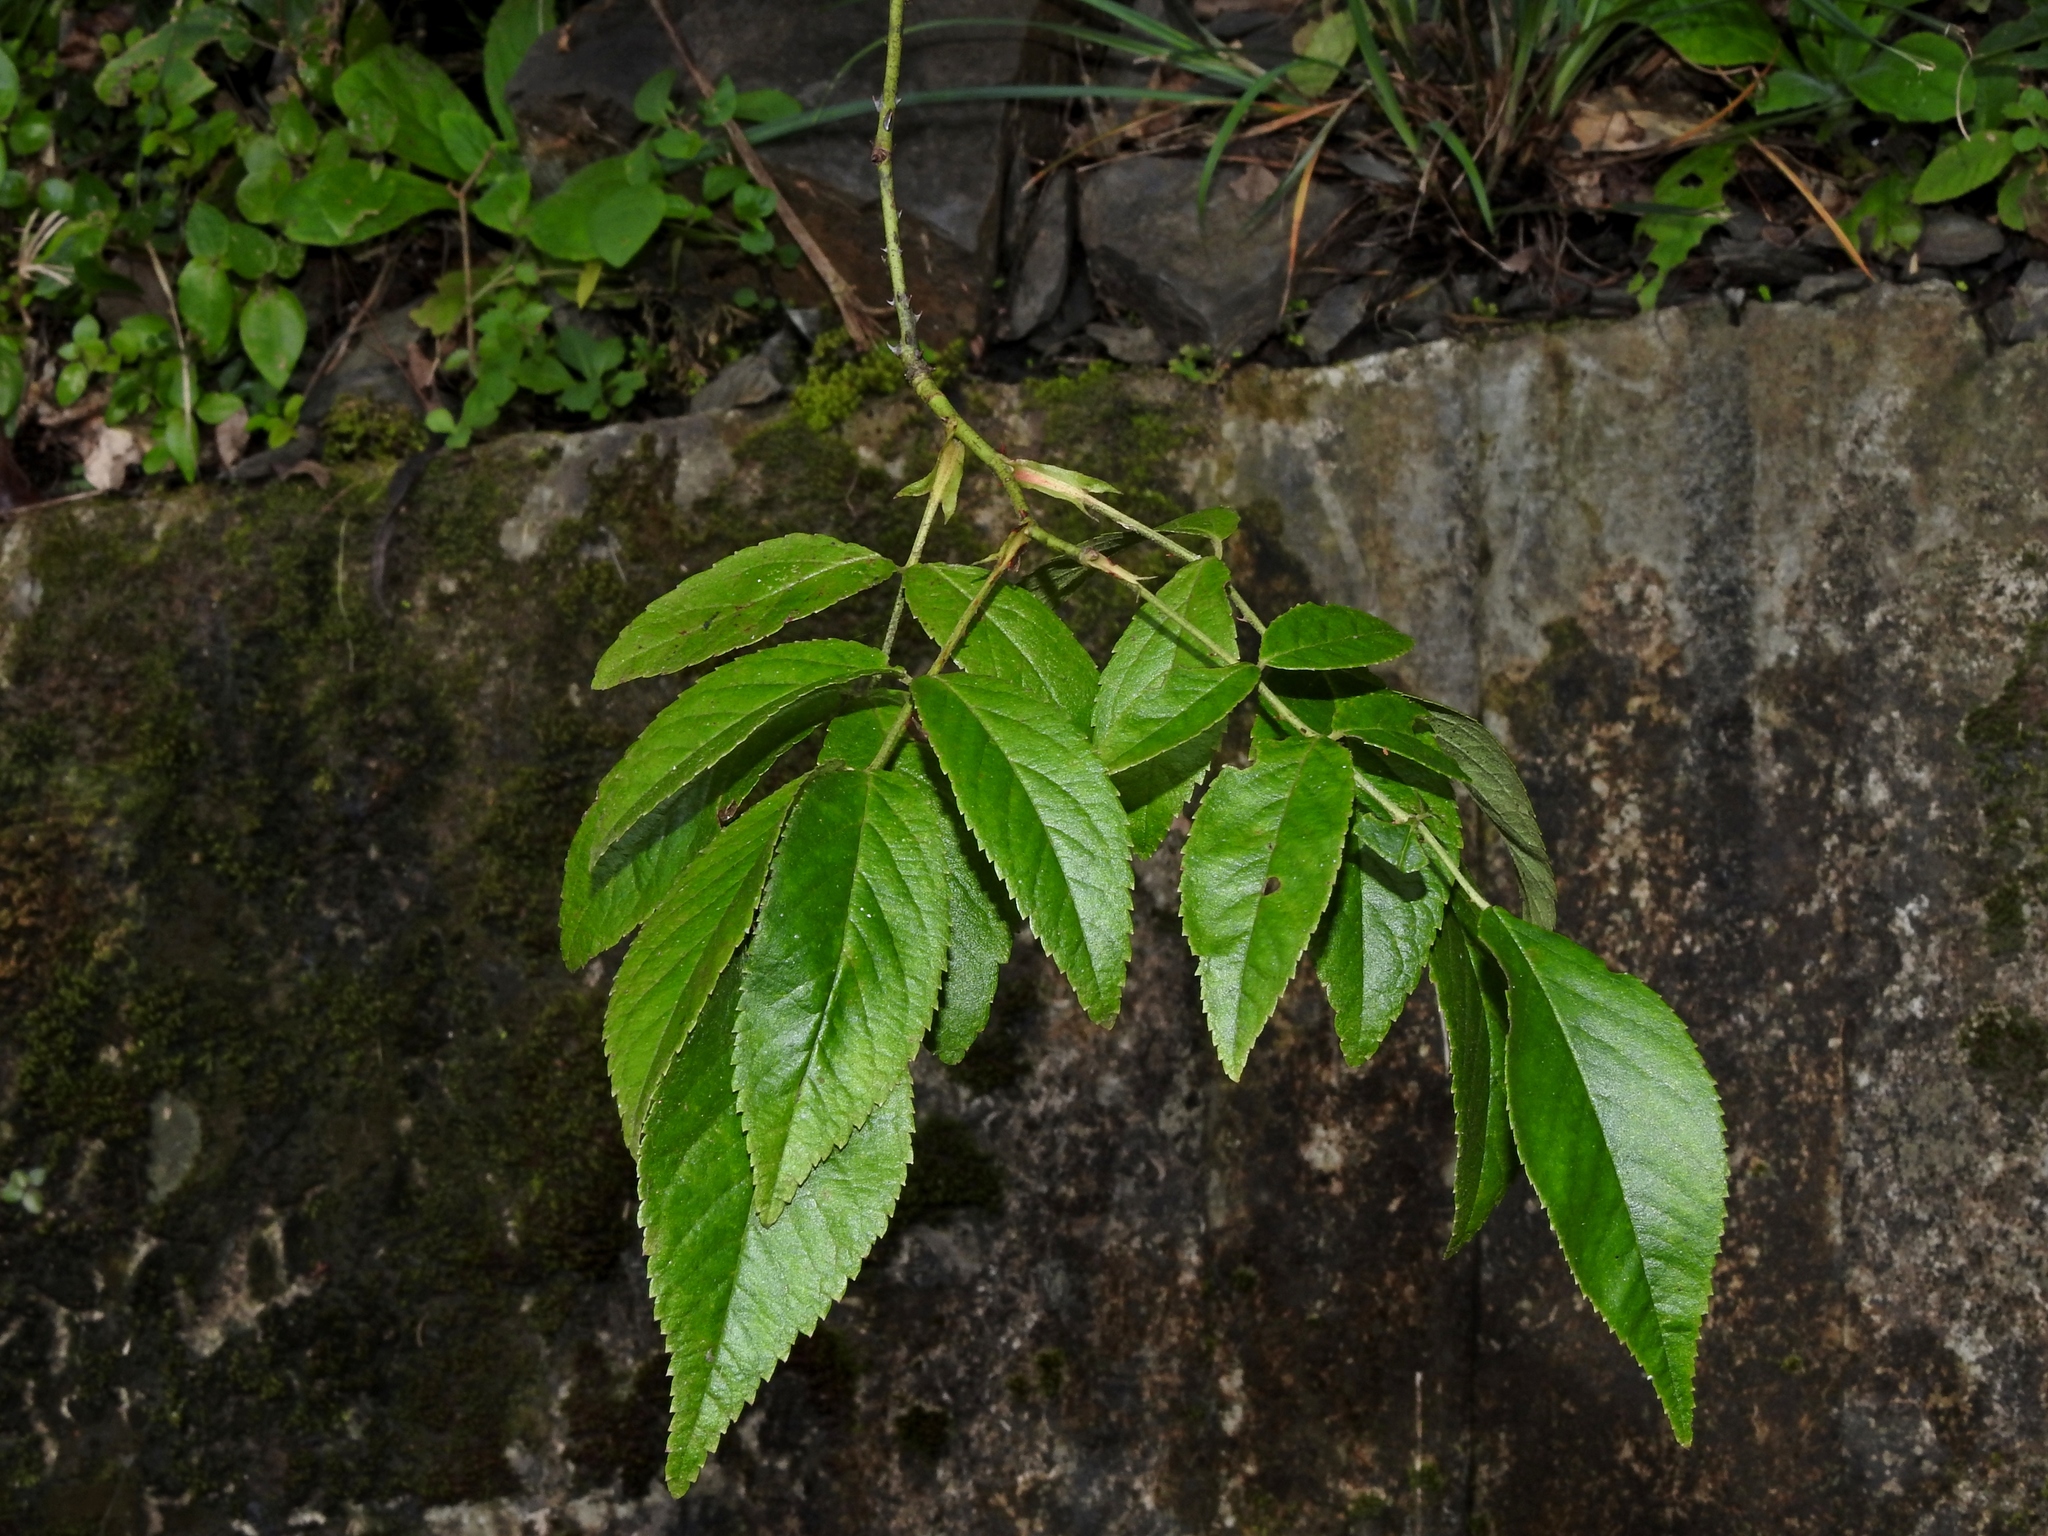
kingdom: Plantae
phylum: Tracheophyta
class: Magnoliopsida
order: Rosales
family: Rosaceae
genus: Rosa
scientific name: Rosa sambucina
